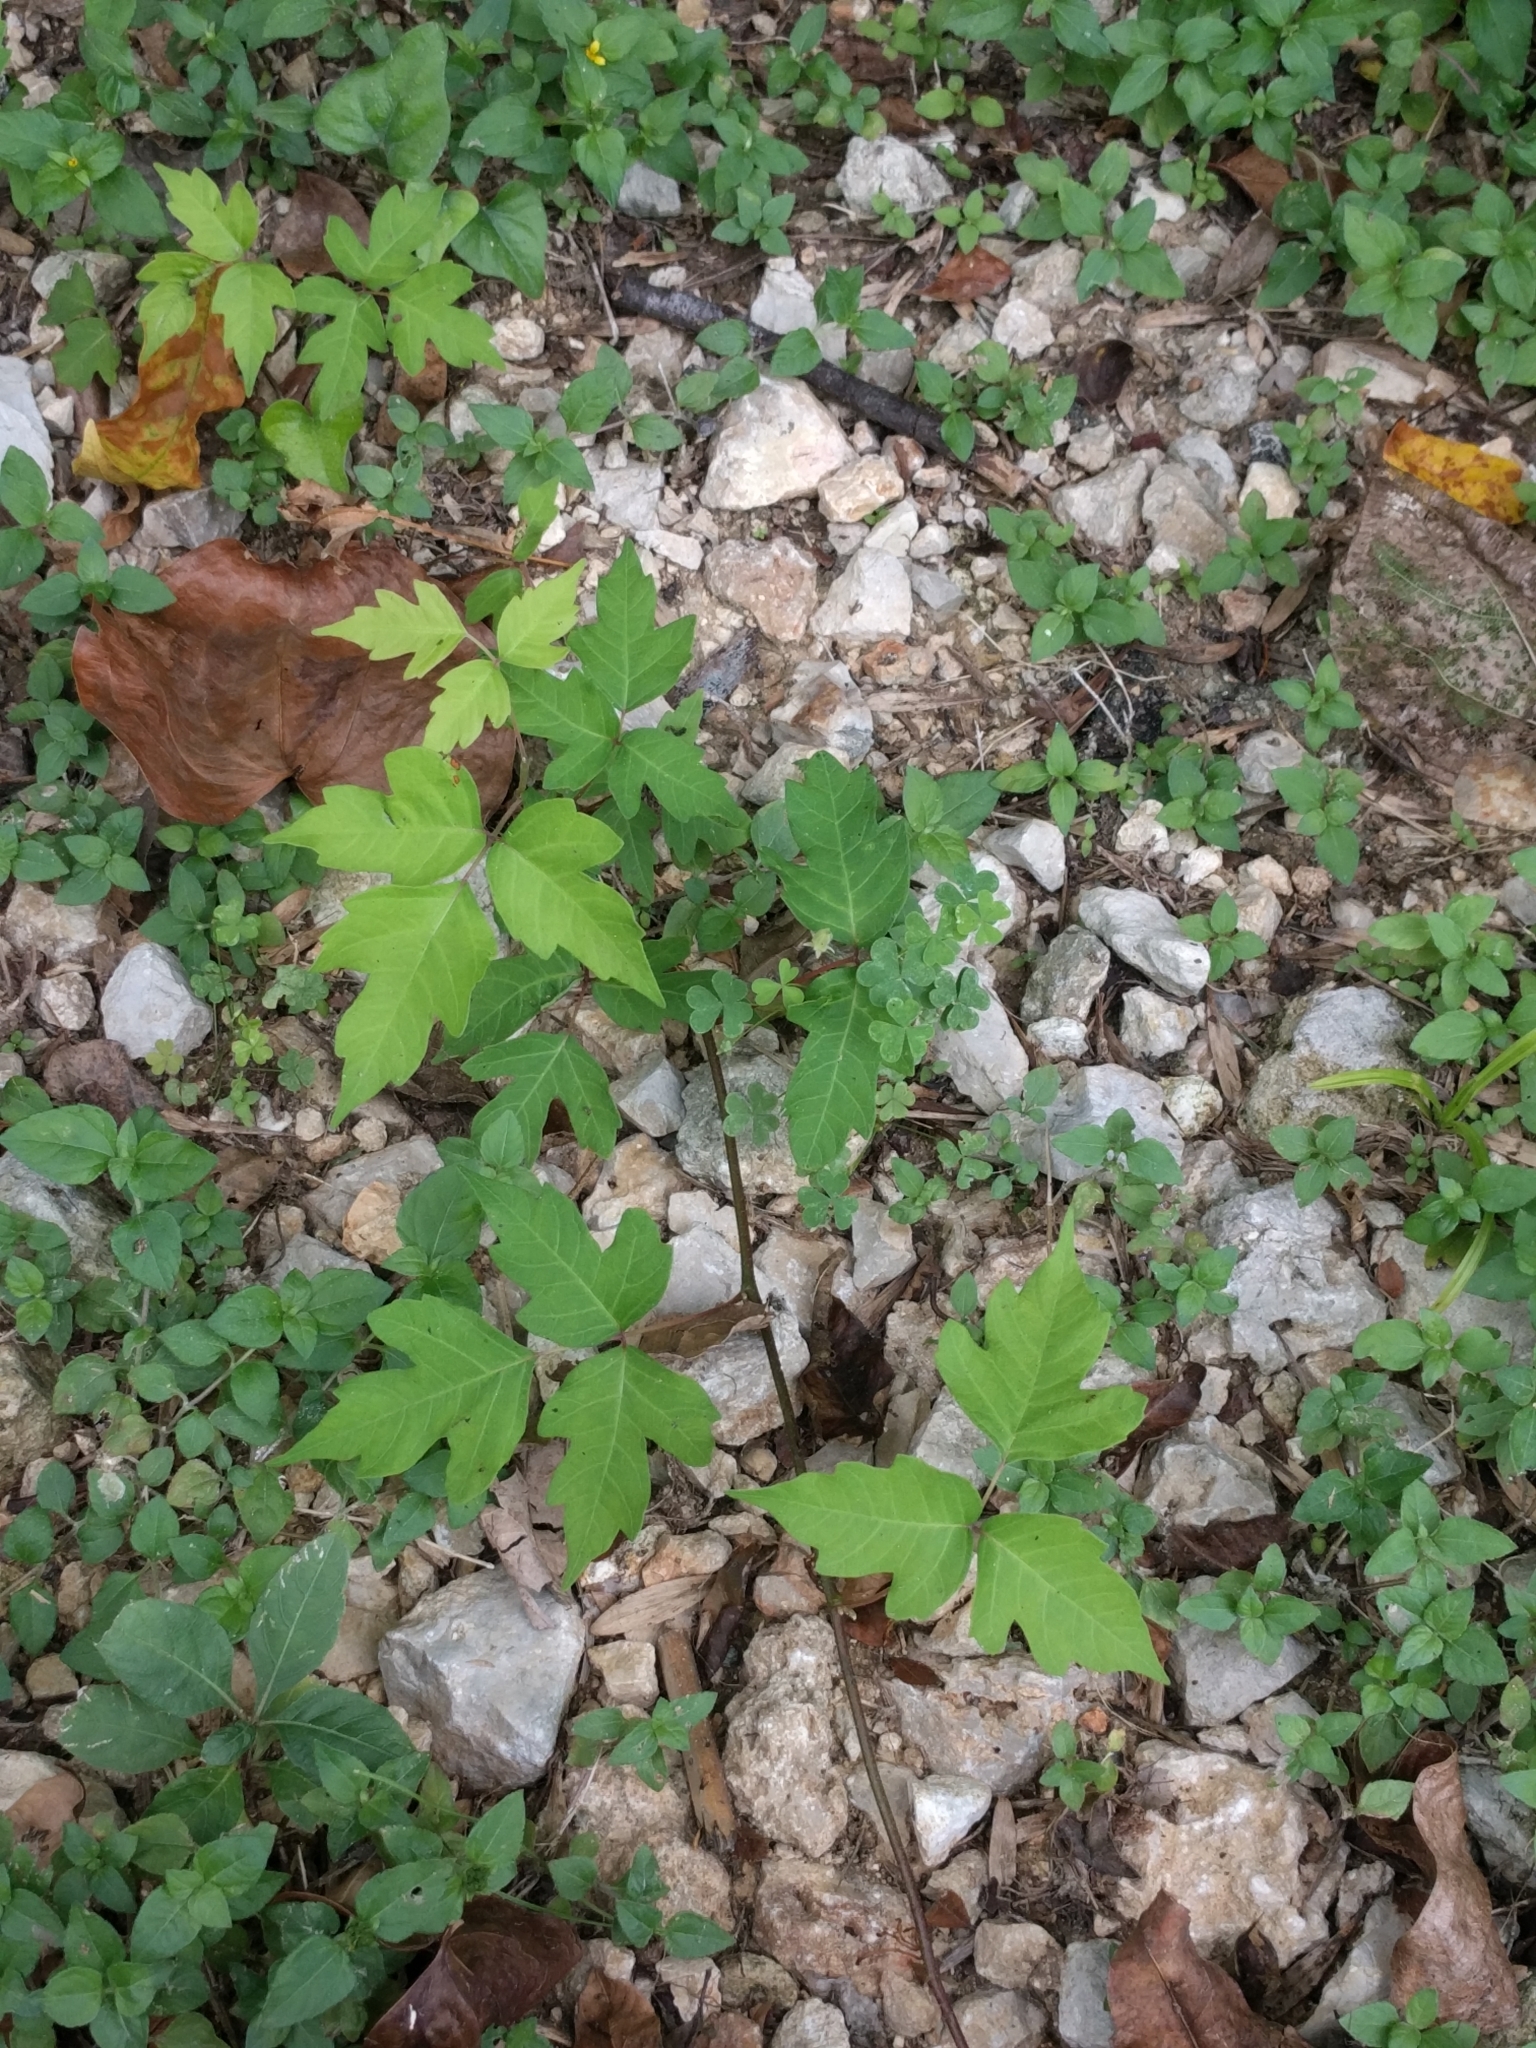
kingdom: Plantae
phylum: Tracheophyta
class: Magnoliopsida
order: Sapindales
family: Anacardiaceae
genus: Toxicodendron
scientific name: Toxicodendron radicans
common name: Poison ivy
